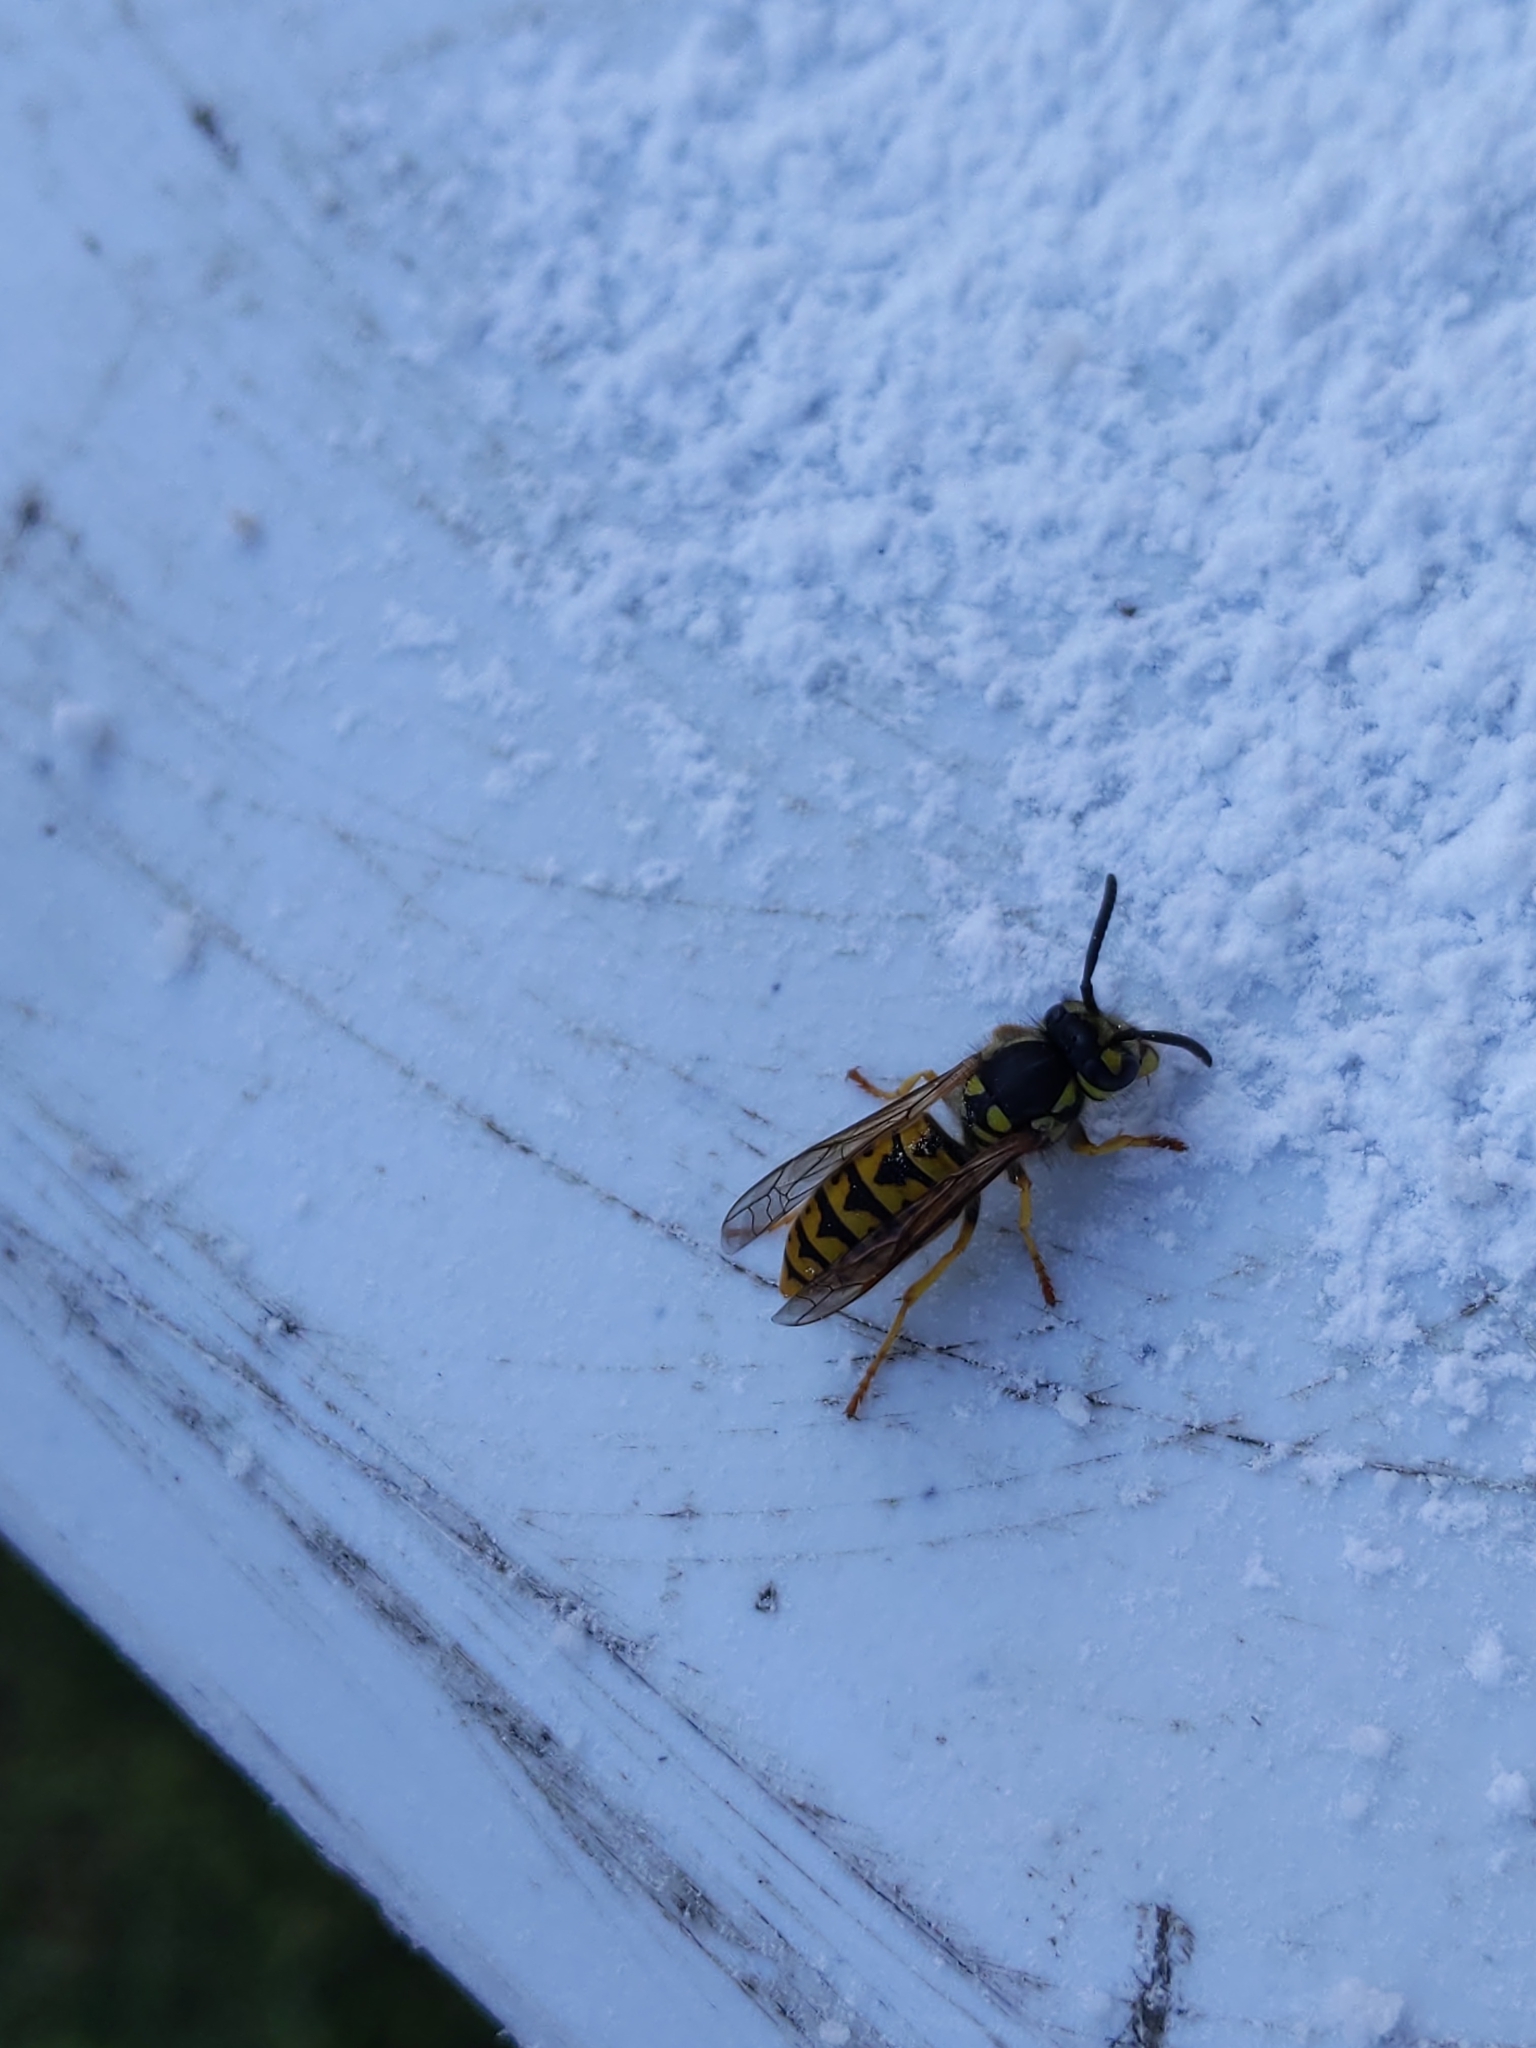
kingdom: Animalia
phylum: Arthropoda
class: Insecta
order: Hymenoptera
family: Vespidae
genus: Vespula
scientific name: Vespula germanica
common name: German wasp
